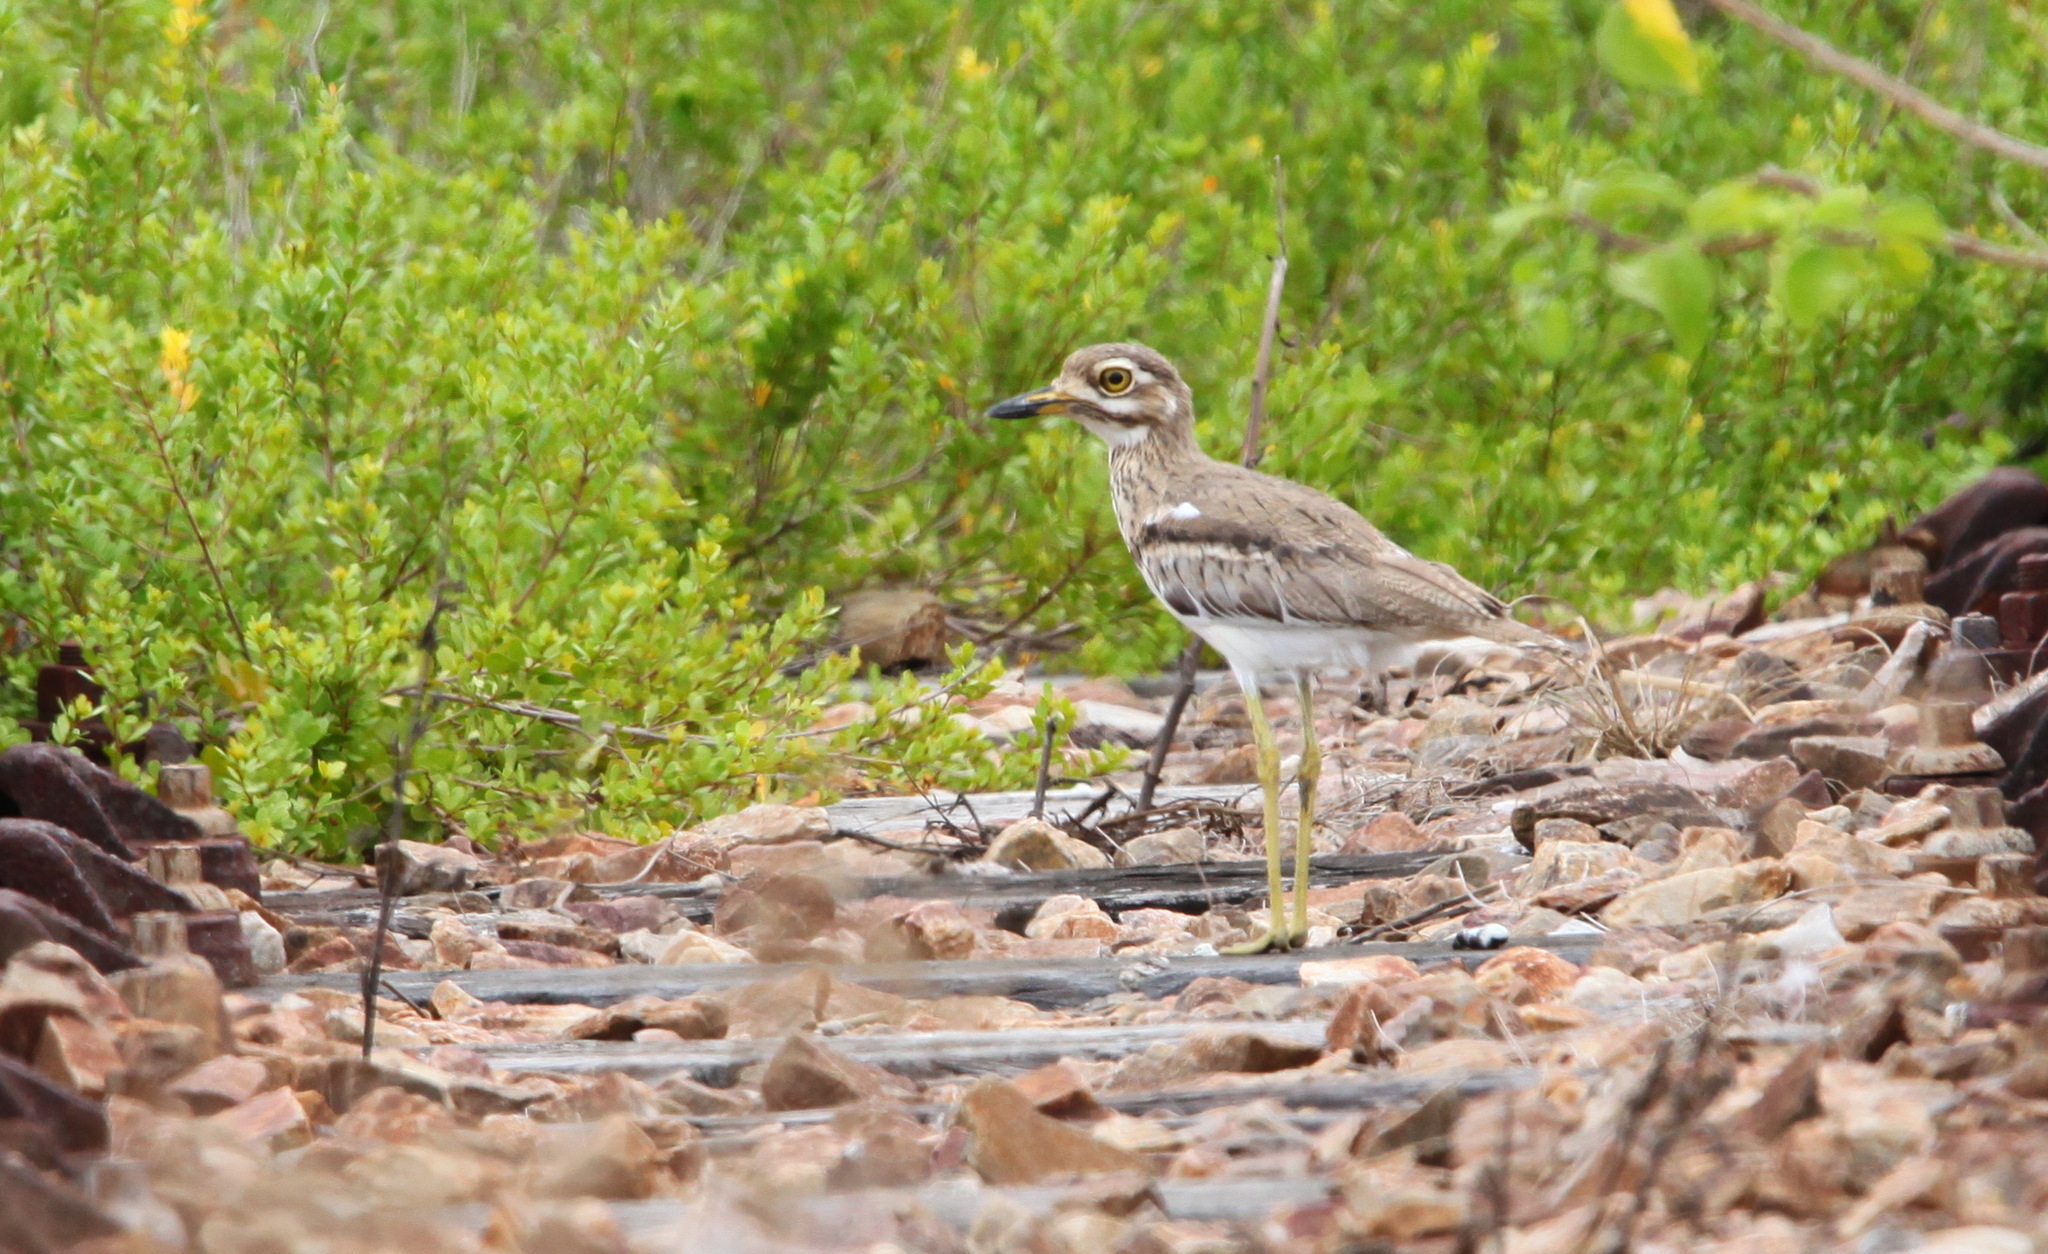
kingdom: Animalia
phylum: Chordata
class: Aves
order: Charadriiformes
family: Burhinidae
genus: Burhinus
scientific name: Burhinus vermiculatus
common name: Water thick-knee
